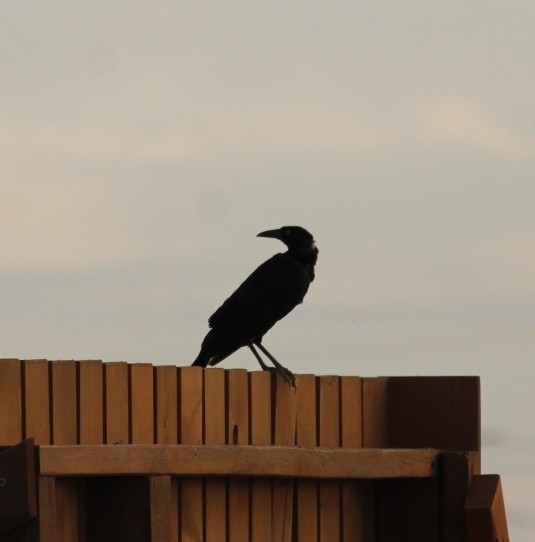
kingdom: Animalia
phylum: Chordata
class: Aves
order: Passeriformes
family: Icteridae
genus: Quiscalus
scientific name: Quiscalus mexicanus
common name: Great-tailed grackle
